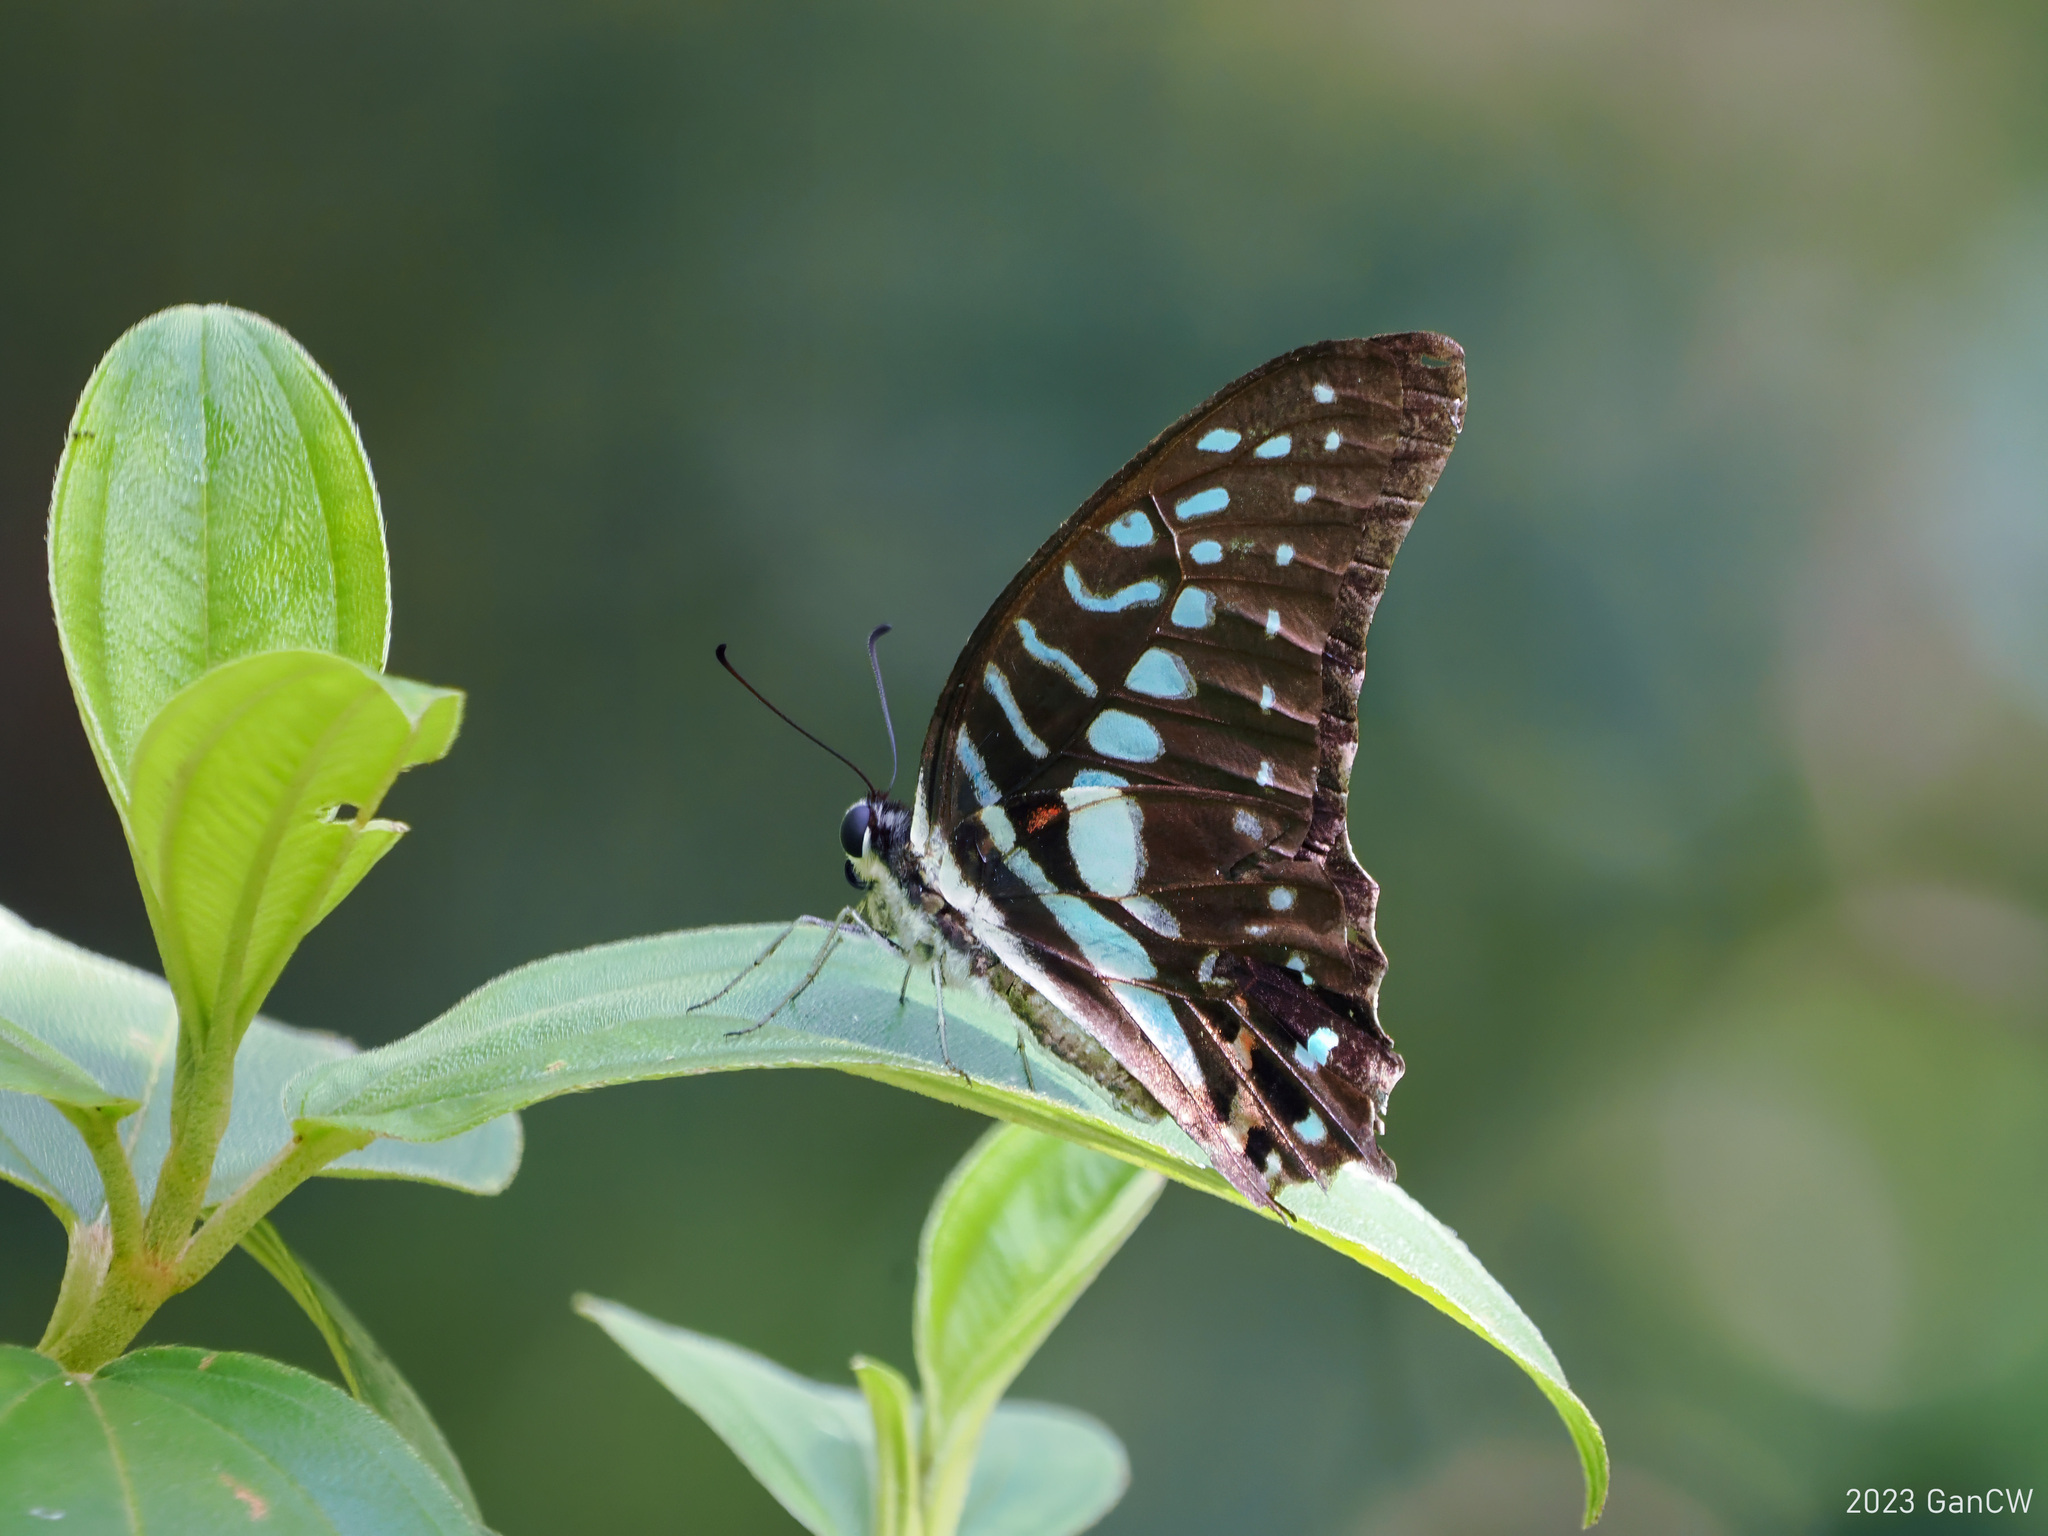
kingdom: Animalia
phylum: Arthropoda
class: Insecta
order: Lepidoptera
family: Papilionidae
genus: Graphium
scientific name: Graphium meyeri
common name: Meyer's triangle
